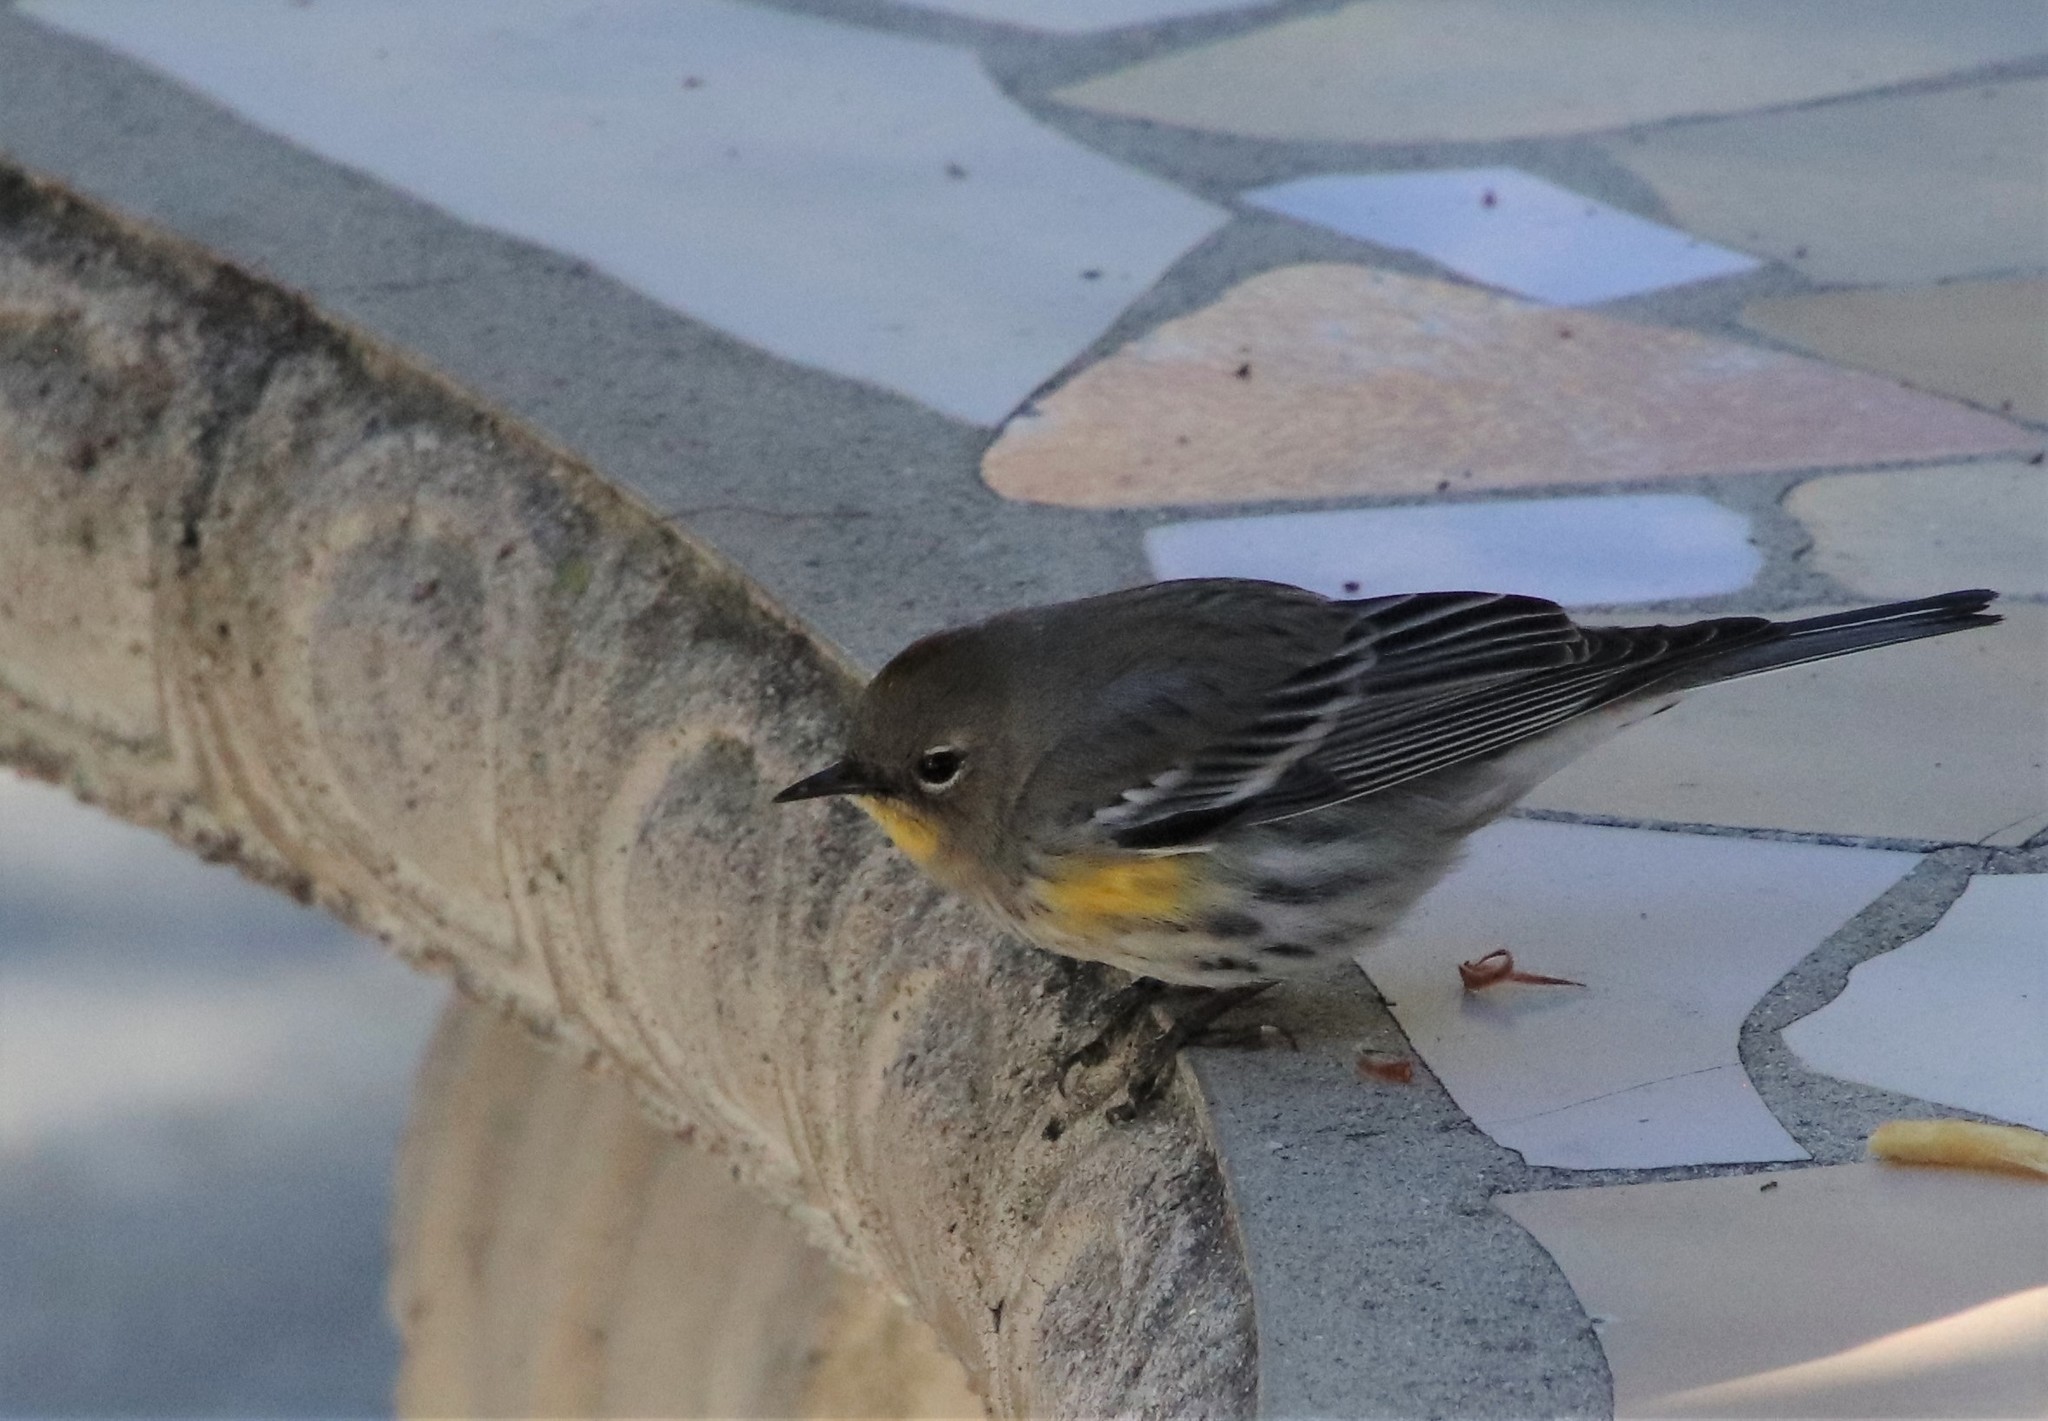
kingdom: Animalia
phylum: Chordata
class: Aves
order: Passeriformes
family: Parulidae
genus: Setophaga
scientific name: Setophaga auduboni
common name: Audubon's warbler
